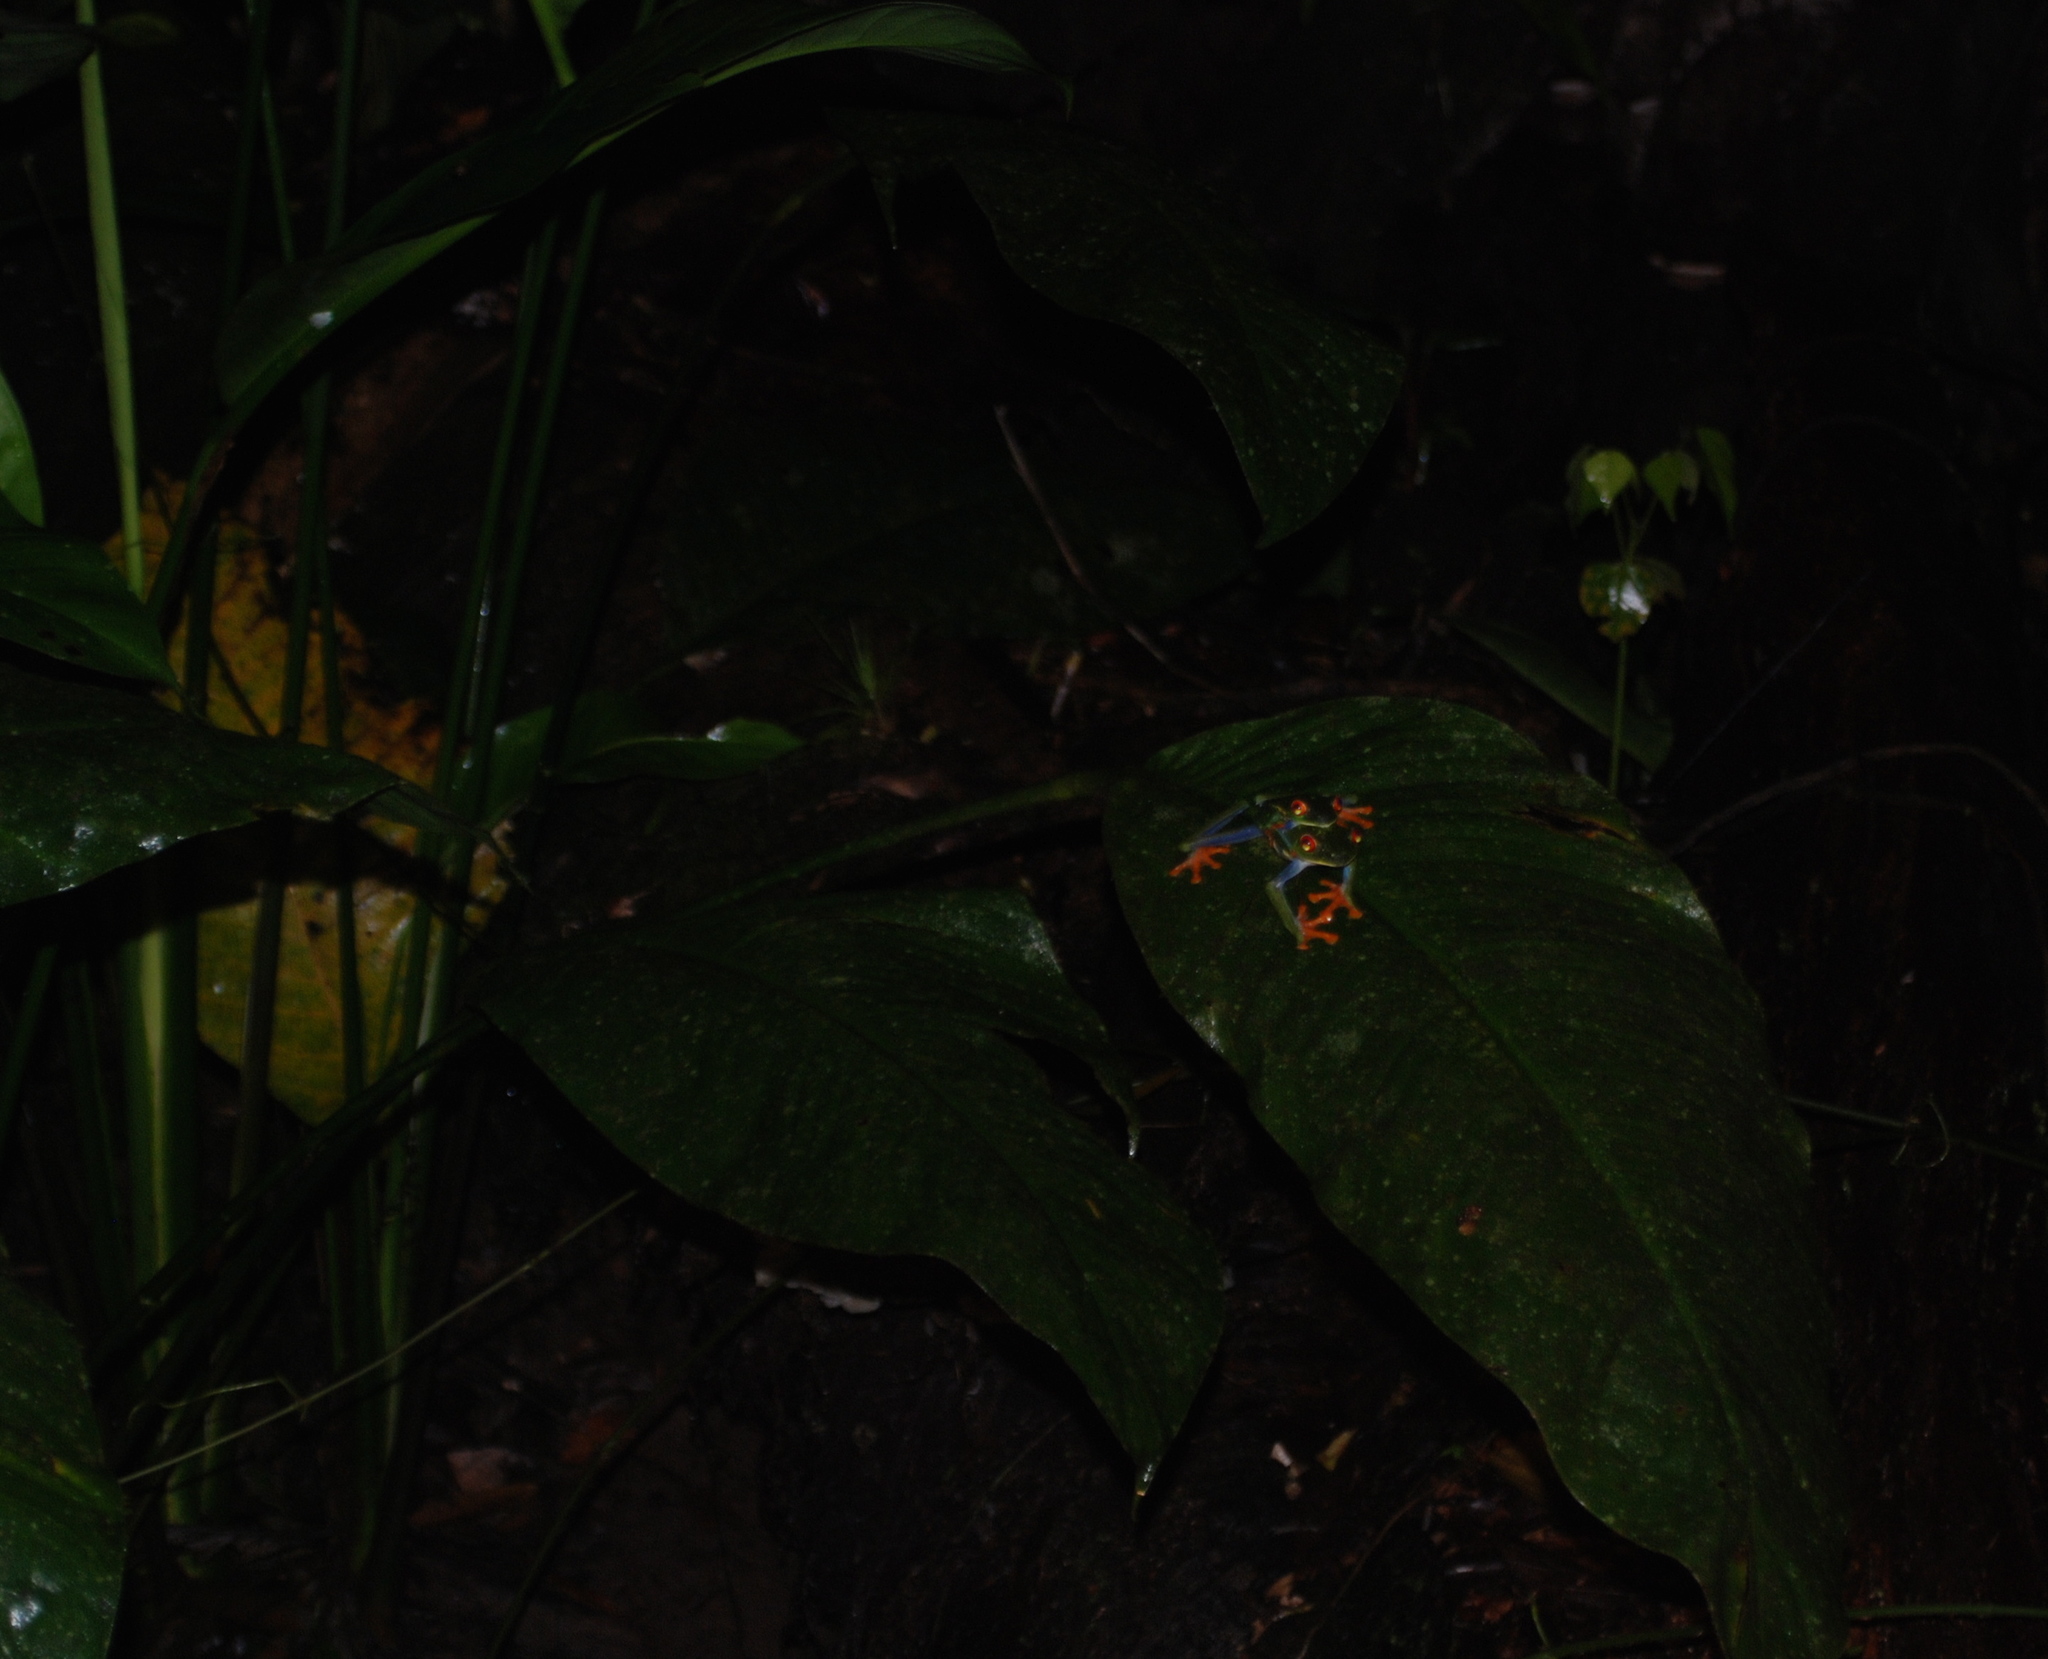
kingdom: Animalia
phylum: Chordata
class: Amphibia
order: Anura
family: Phyllomedusidae
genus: Agalychnis
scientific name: Agalychnis callidryas
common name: Red-eyed treefrog
